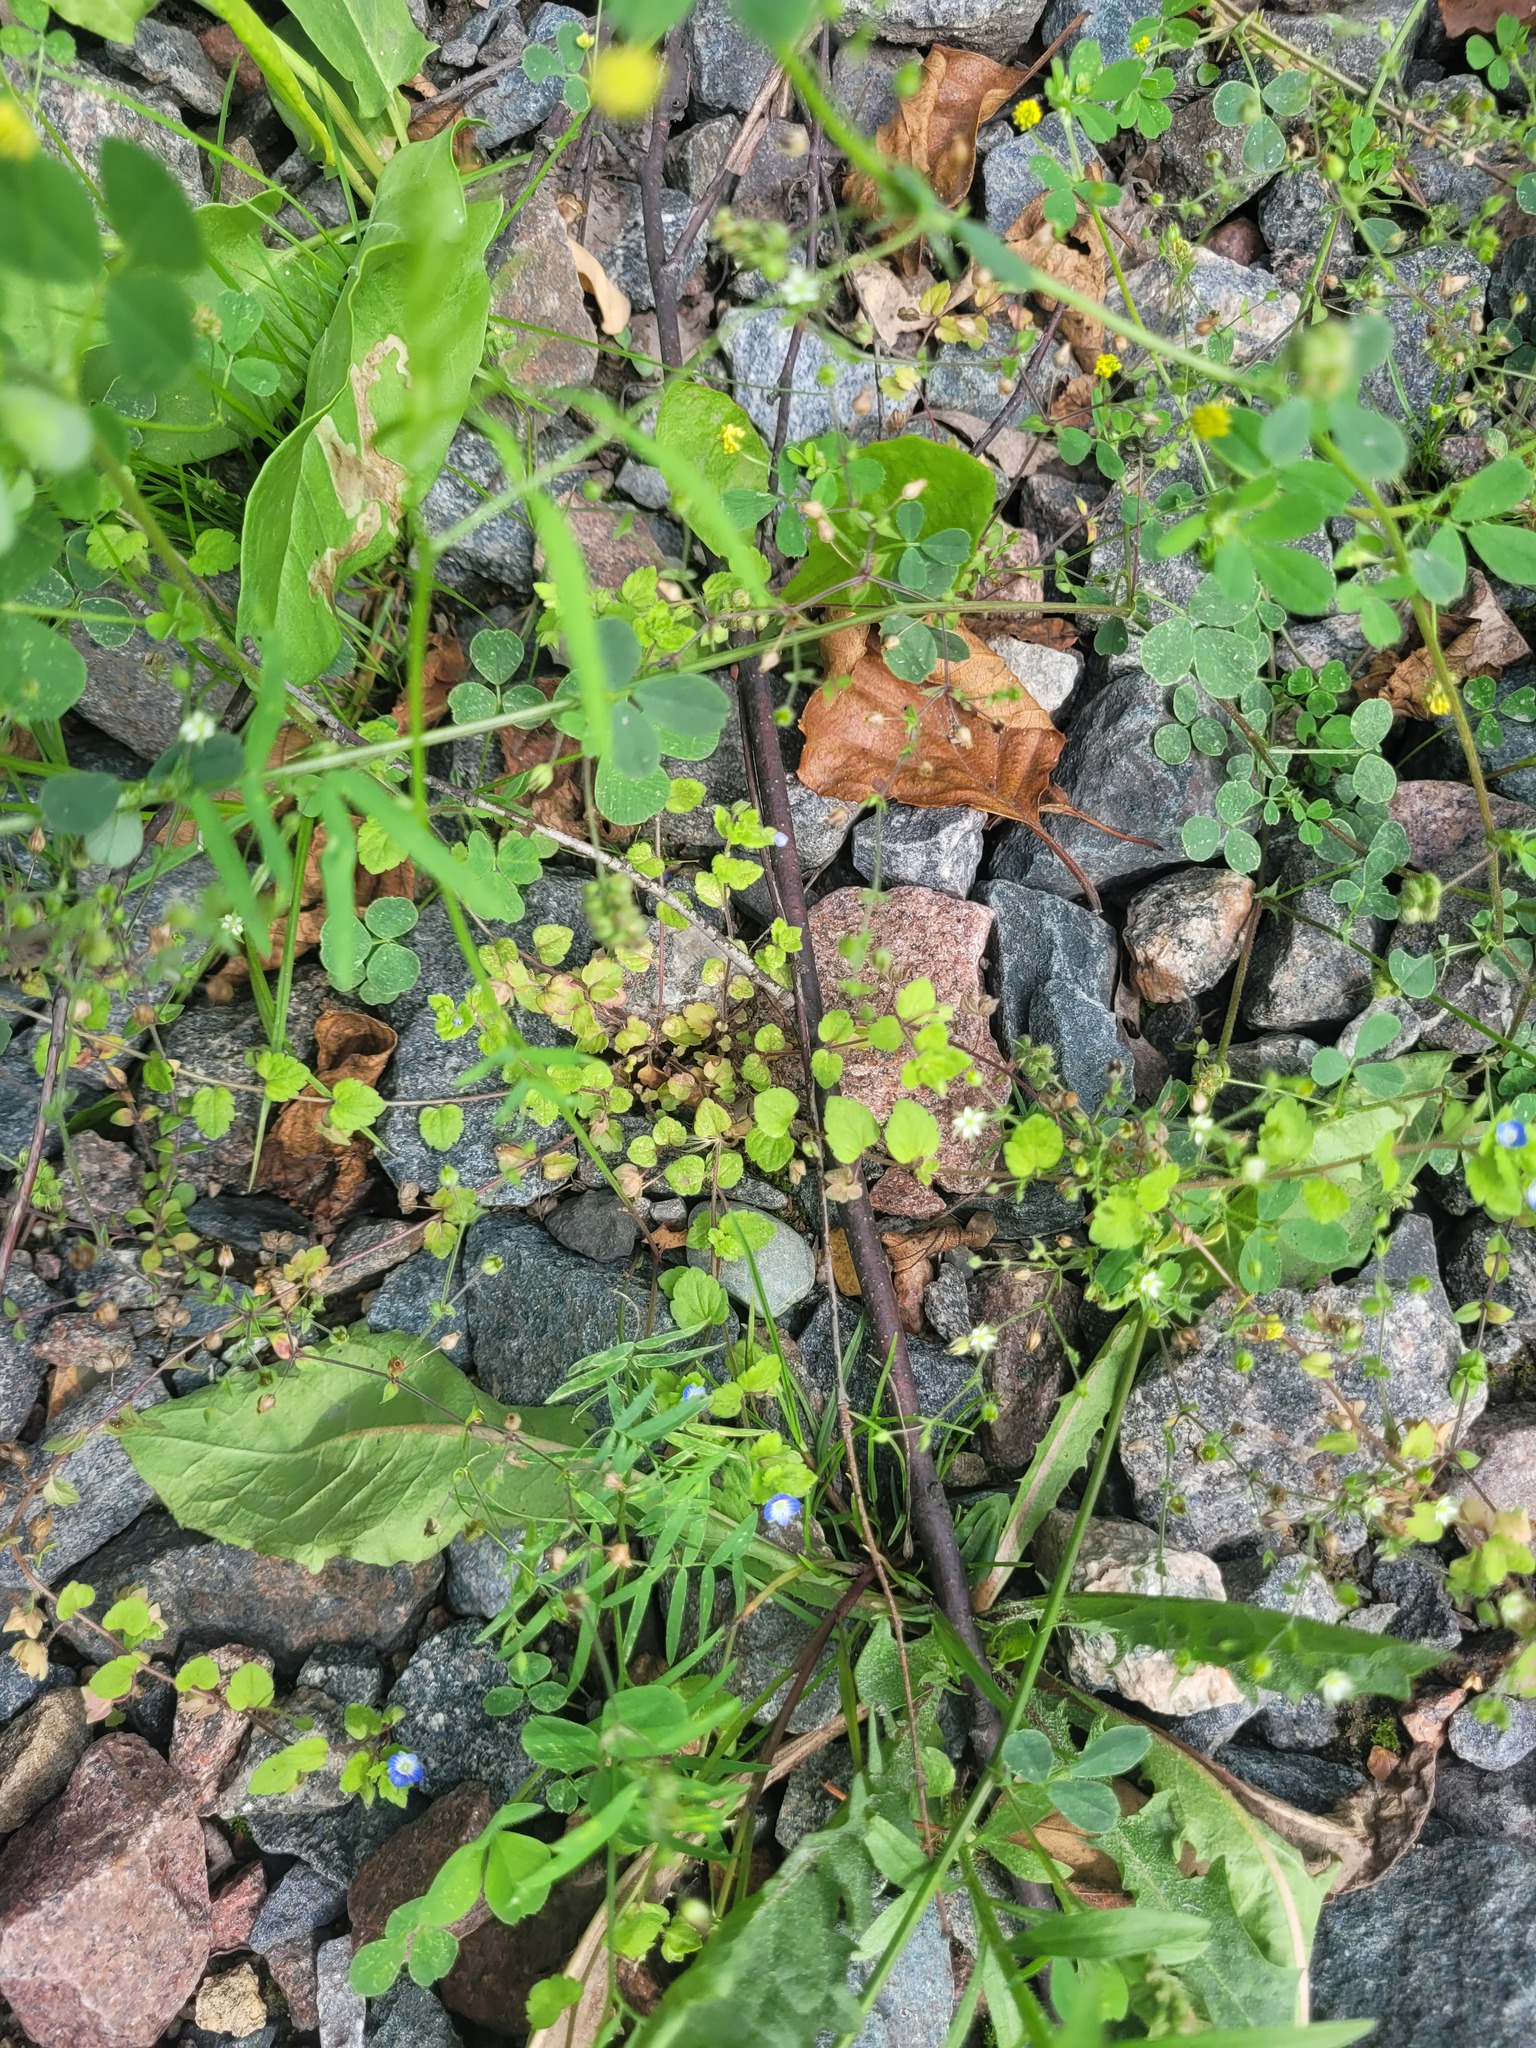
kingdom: Plantae
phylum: Tracheophyta
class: Magnoliopsida
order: Lamiales
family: Plantaginaceae
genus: Veronica
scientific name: Veronica opaca
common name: Dark speedwell
